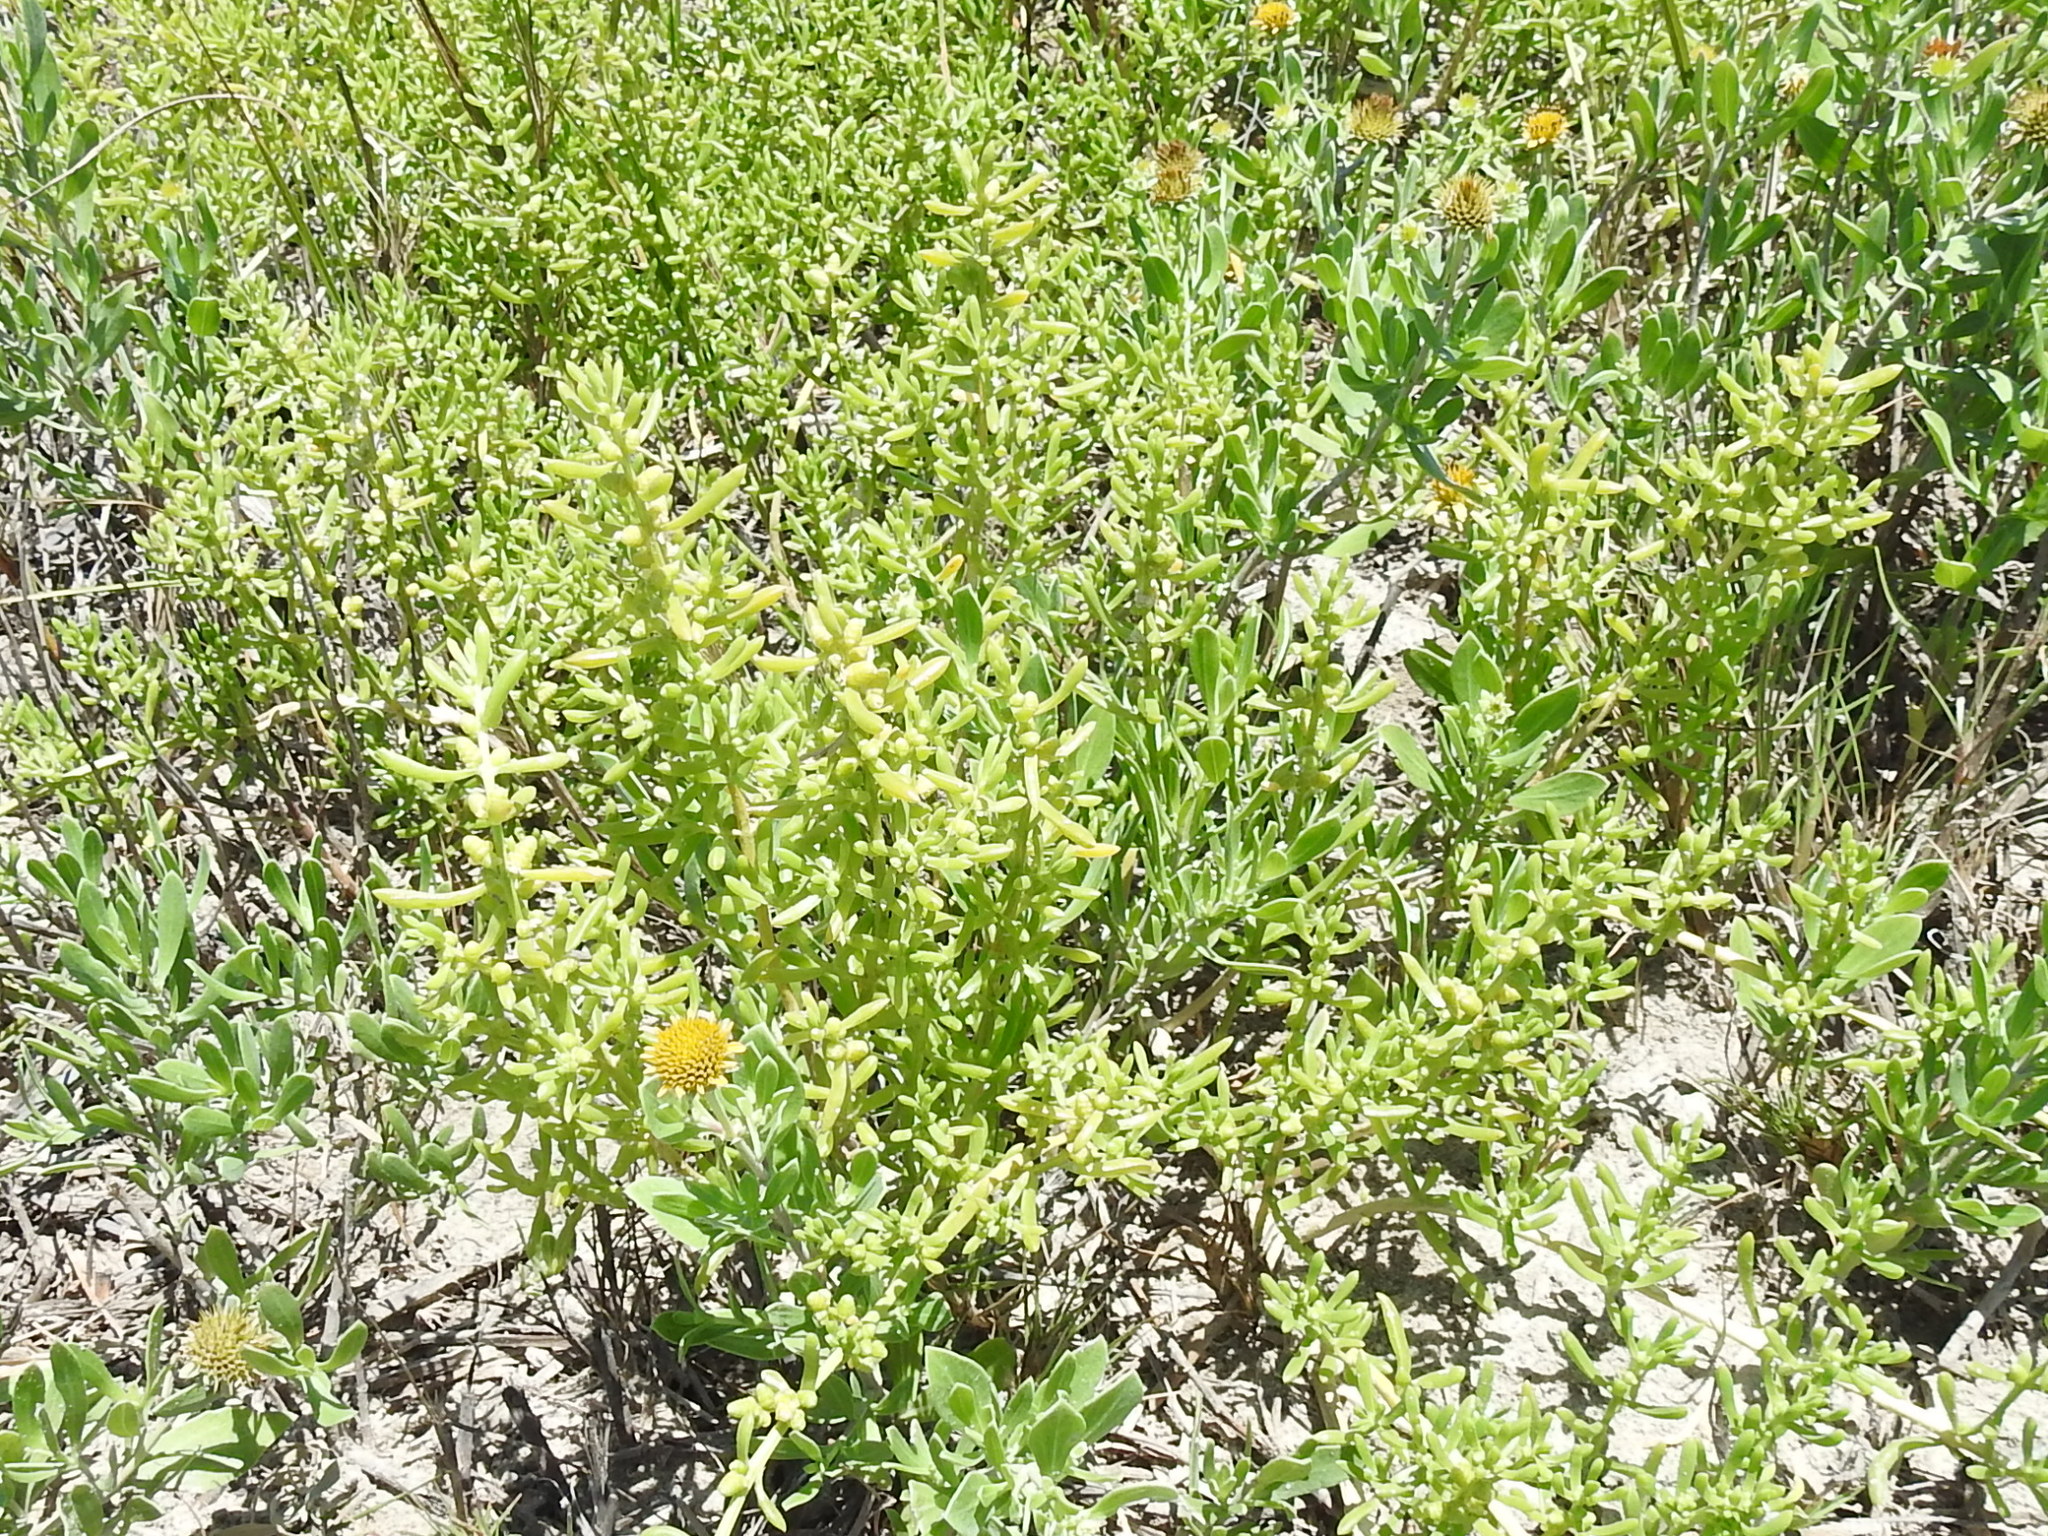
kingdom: Plantae
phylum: Tracheophyta
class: Magnoliopsida
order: Brassicales
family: Bataceae
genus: Batis
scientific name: Batis maritima
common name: Turtleweed
